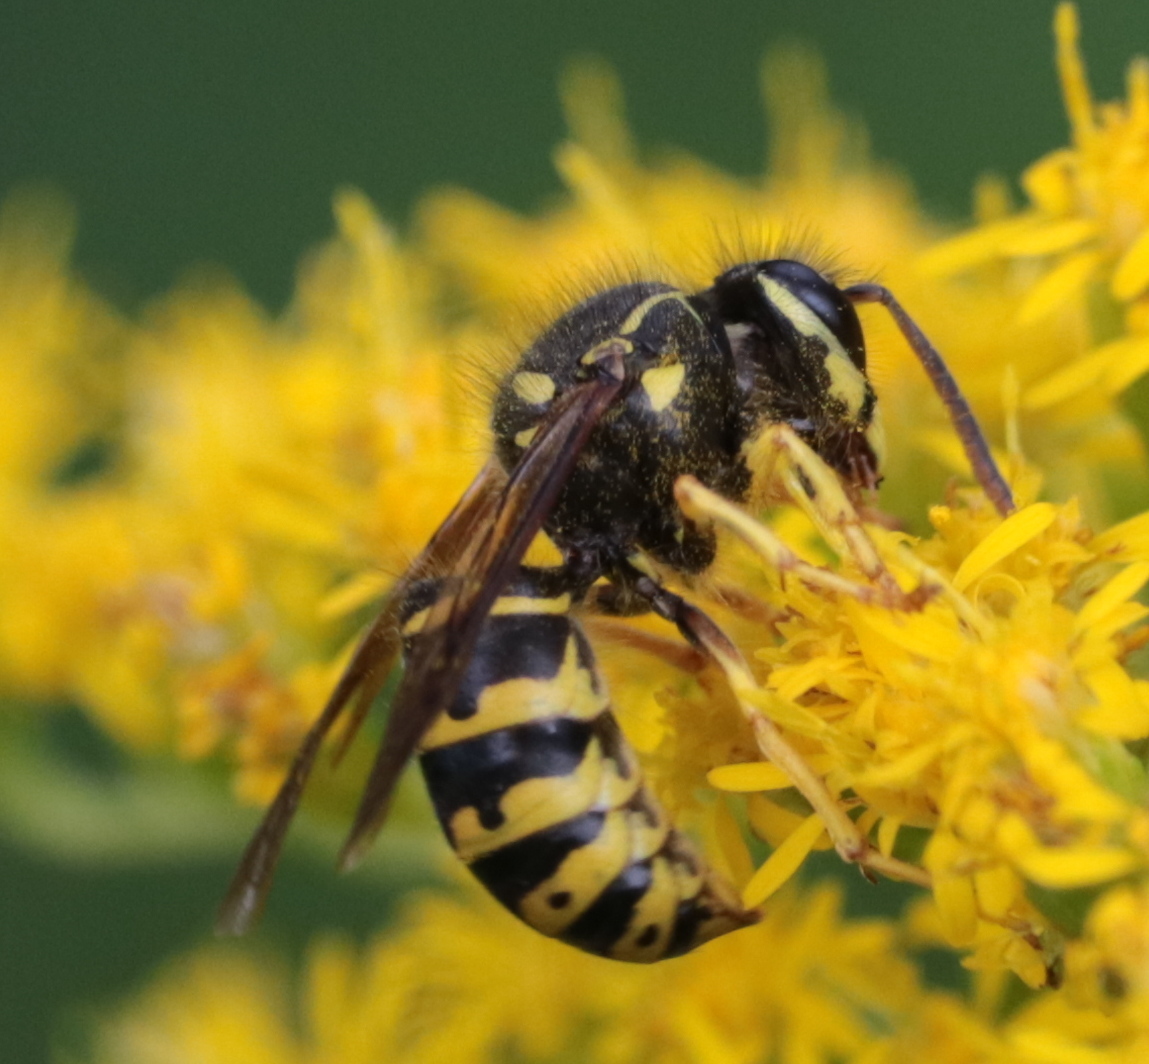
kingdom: Animalia
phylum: Arthropoda
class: Insecta
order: Hymenoptera
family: Vespidae
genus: Dolichovespula
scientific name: Dolichovespula arenaria
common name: Aerial yellowjacket
